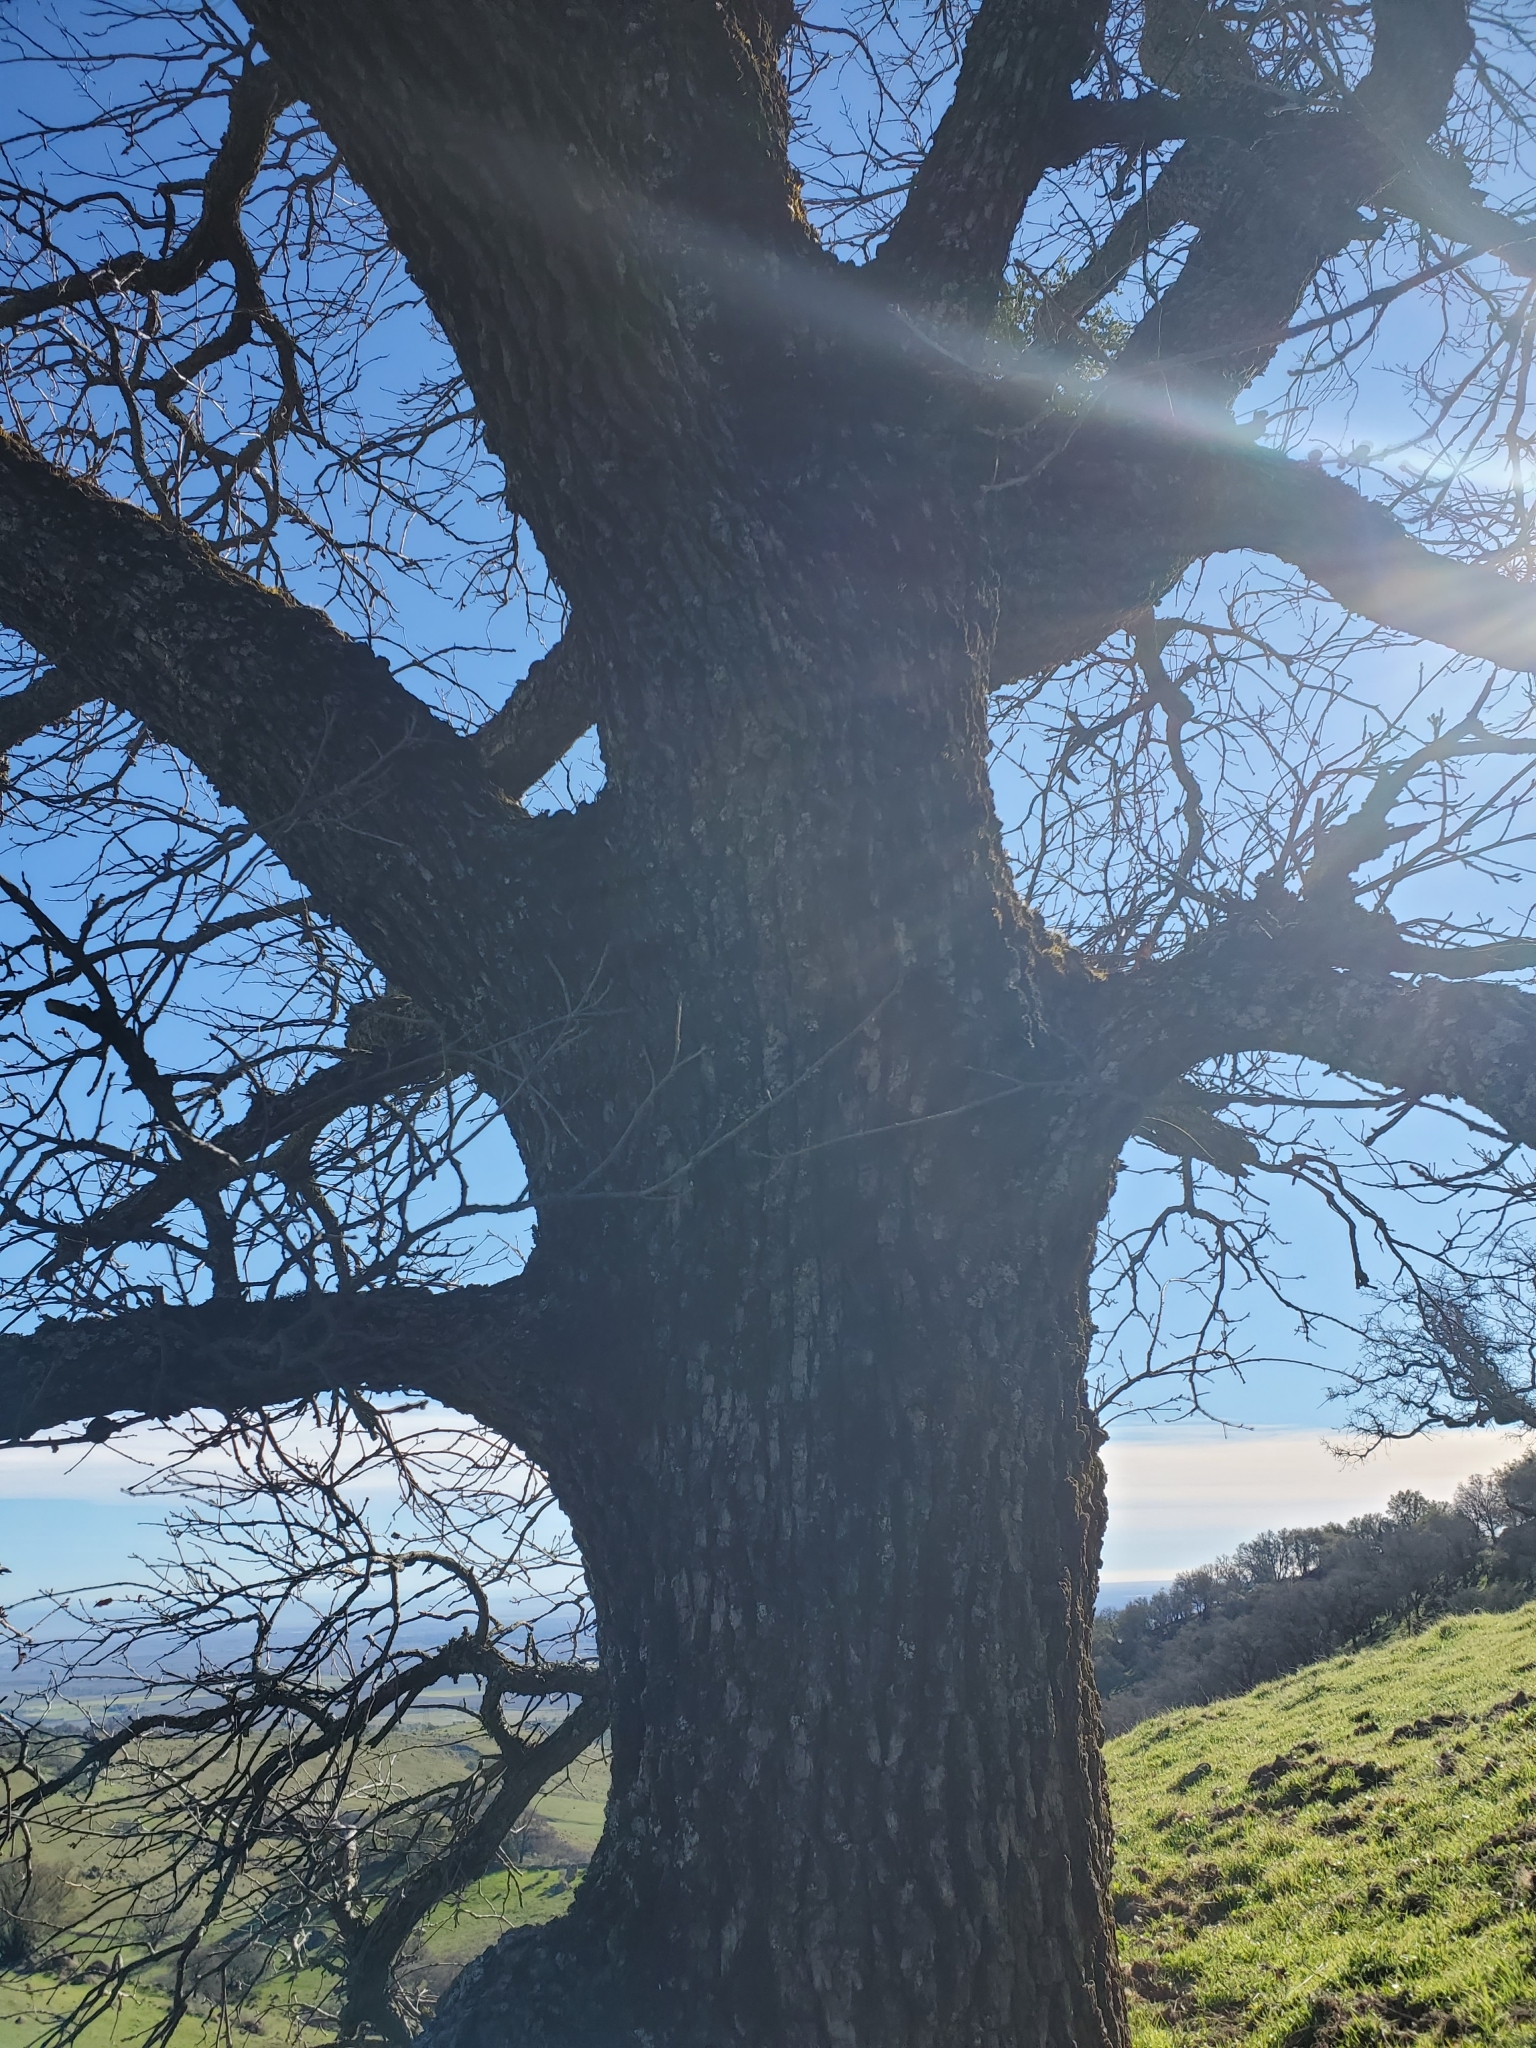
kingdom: Plantae
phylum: Tracheophyta
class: Magnoliopsida
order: Fagales
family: Fagaceae
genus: Quercus
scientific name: Quercus lobata
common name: Valley oak
